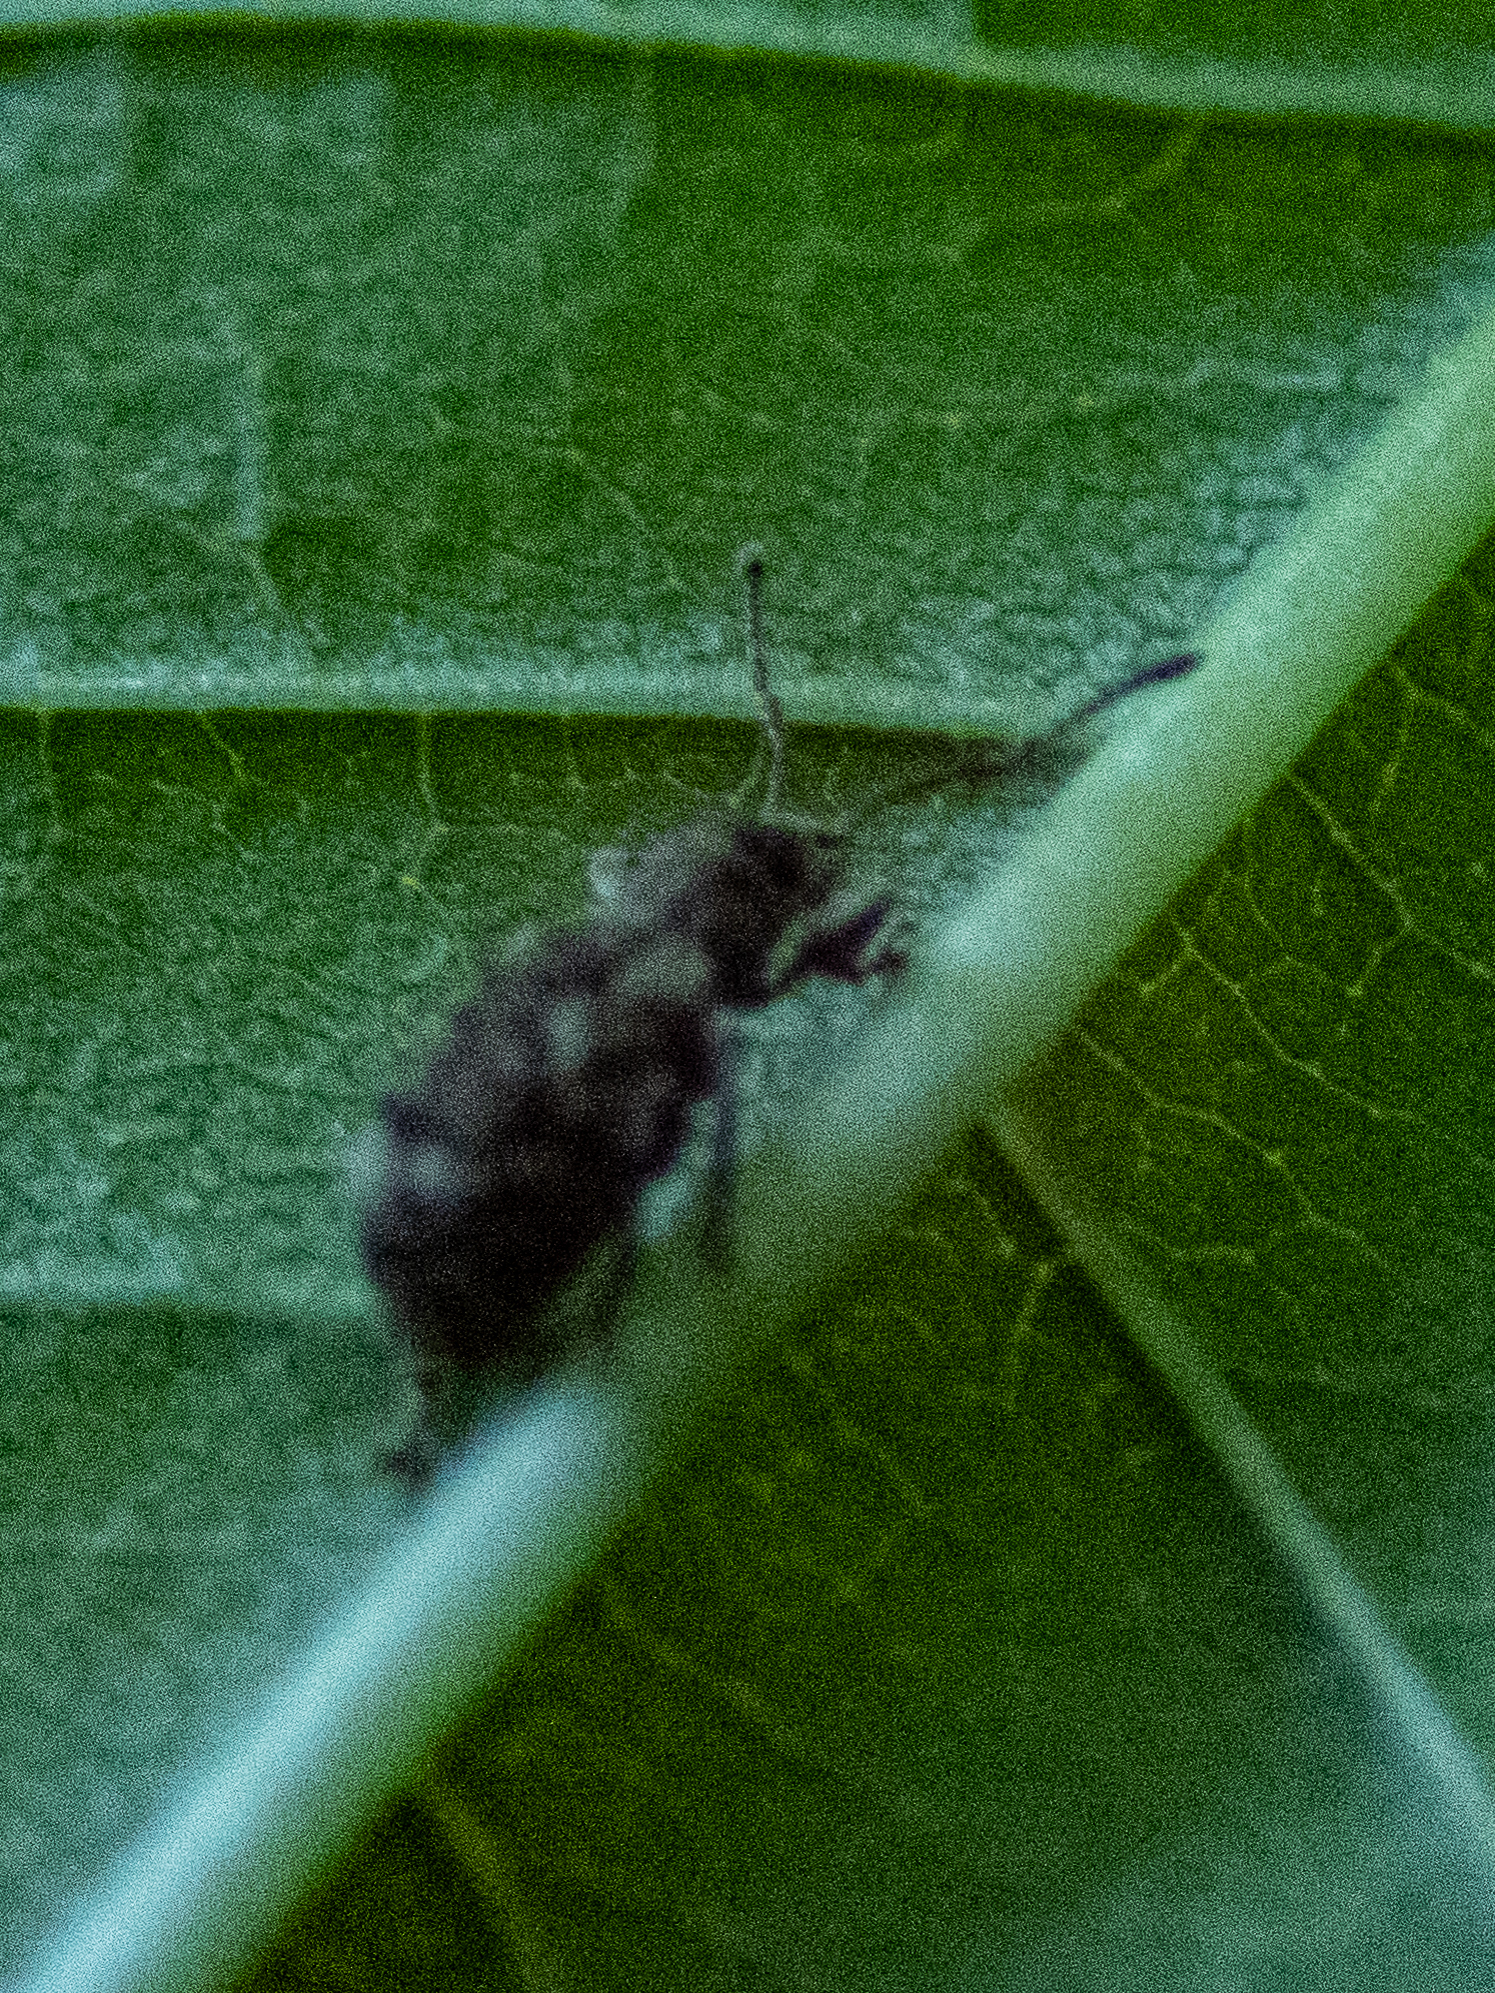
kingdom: Animalia
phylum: Arthropoda
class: Insecta
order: Coleoptera
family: Curculionidae
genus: Pseudoedophrys
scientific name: Pseudoedophrys hilleri
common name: Weevil
